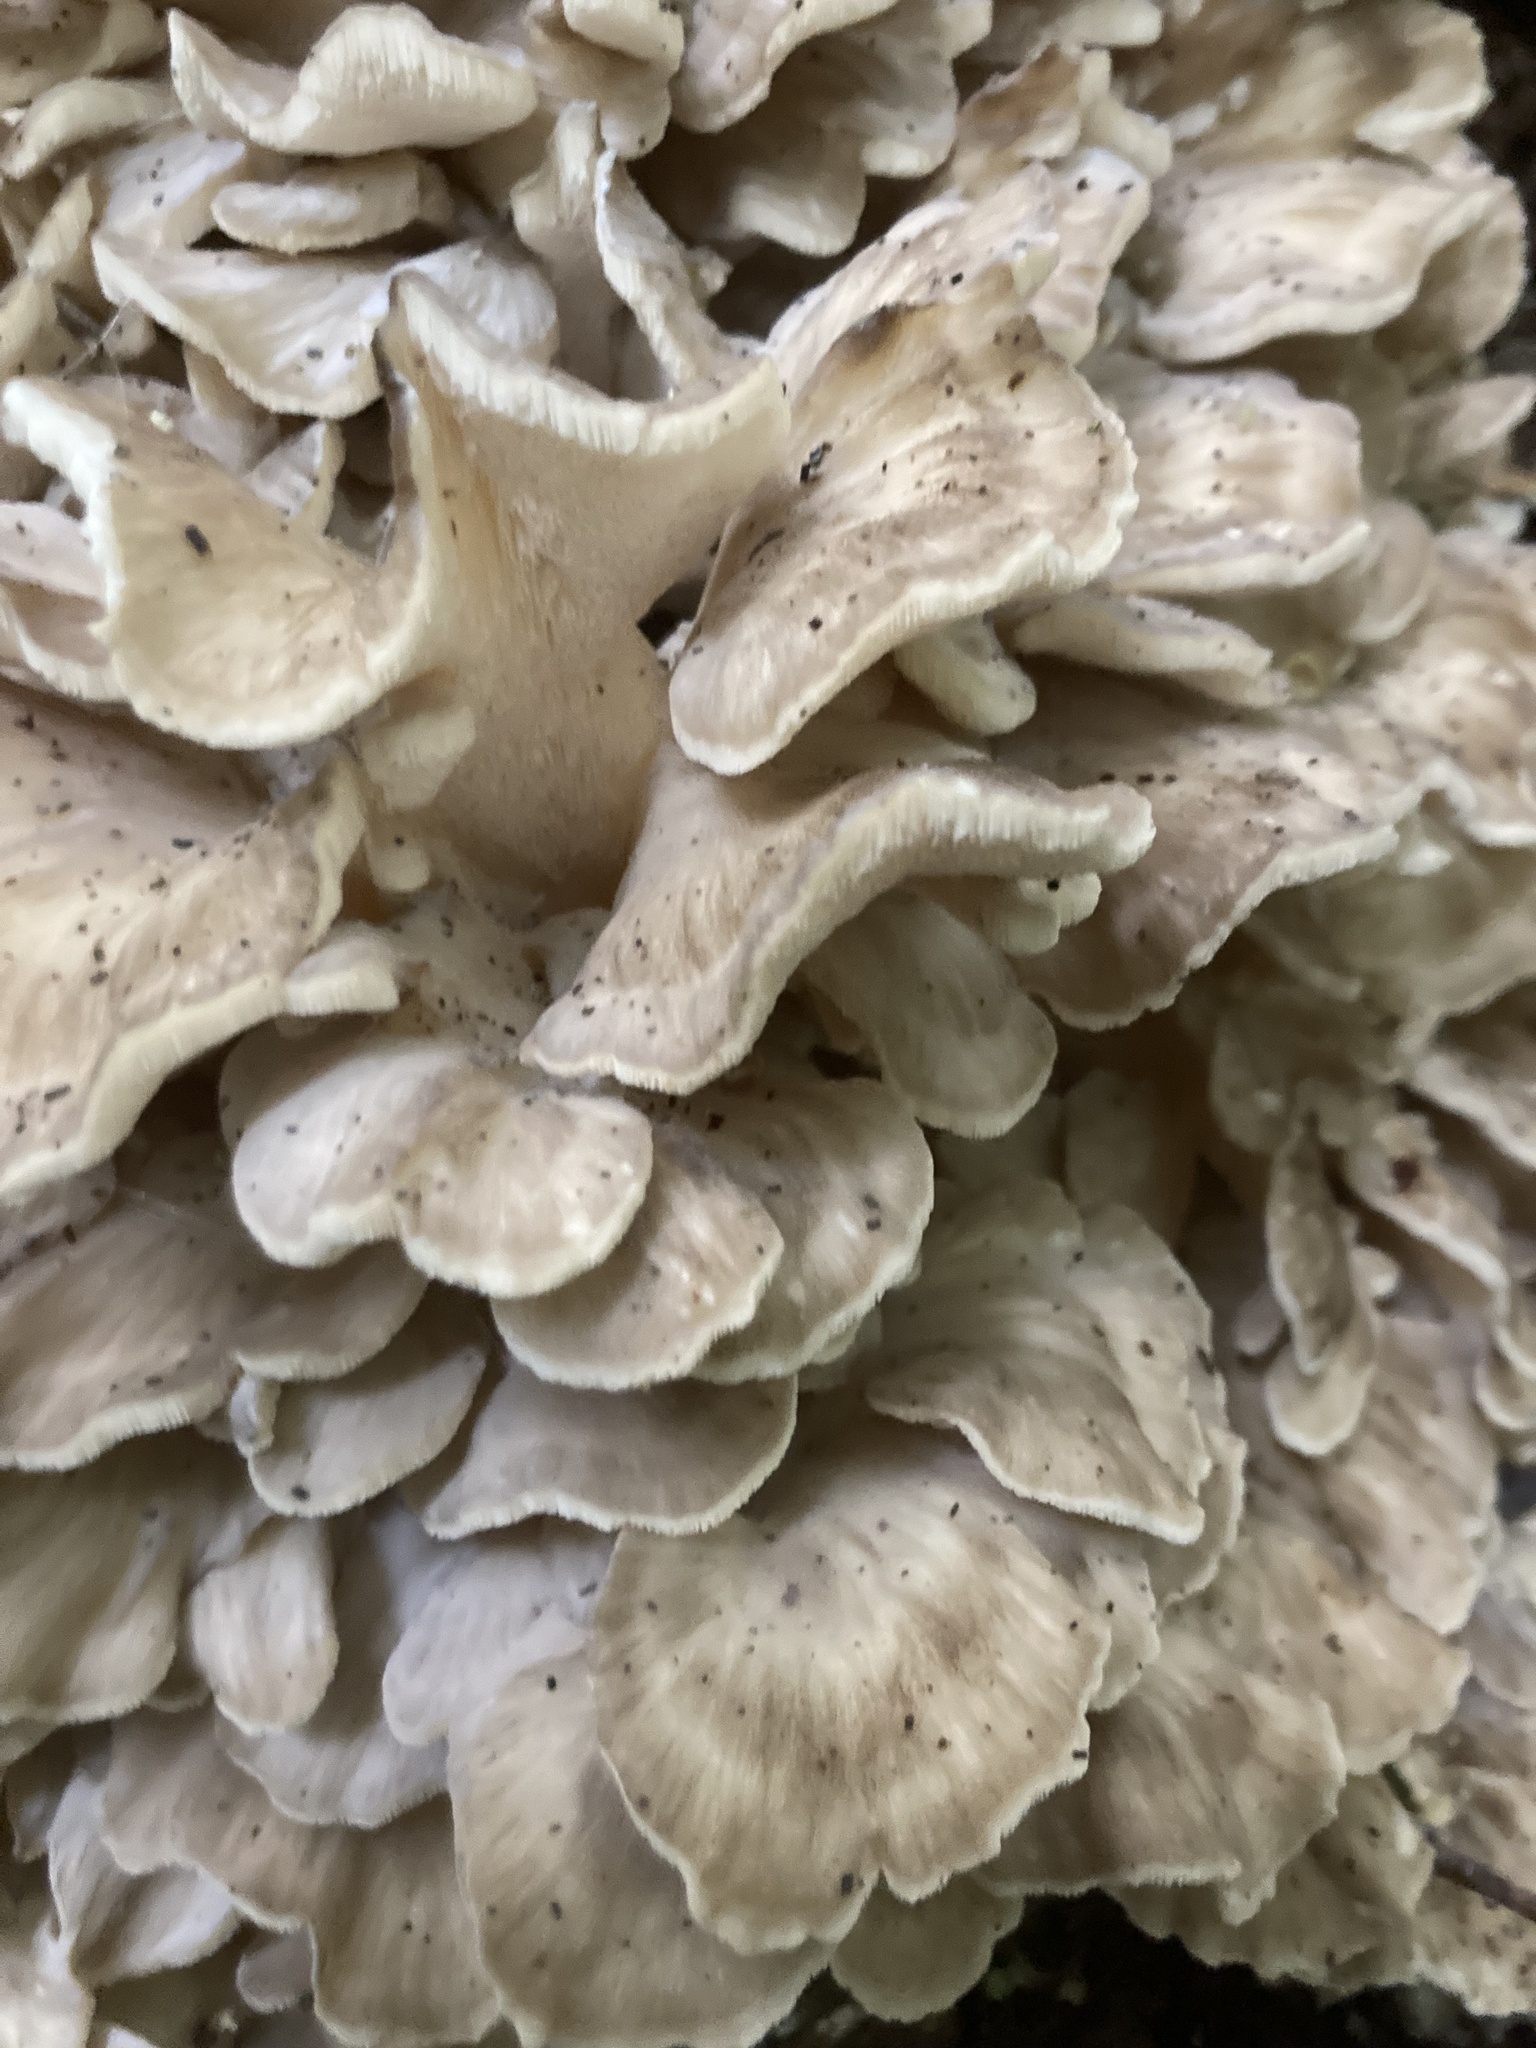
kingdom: Fungi
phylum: Basidiomycota
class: Agaricomycetes
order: Polyporales
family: Grifolaceae
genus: Grifola
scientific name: Grifola frondosa
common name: Hen of the woods
